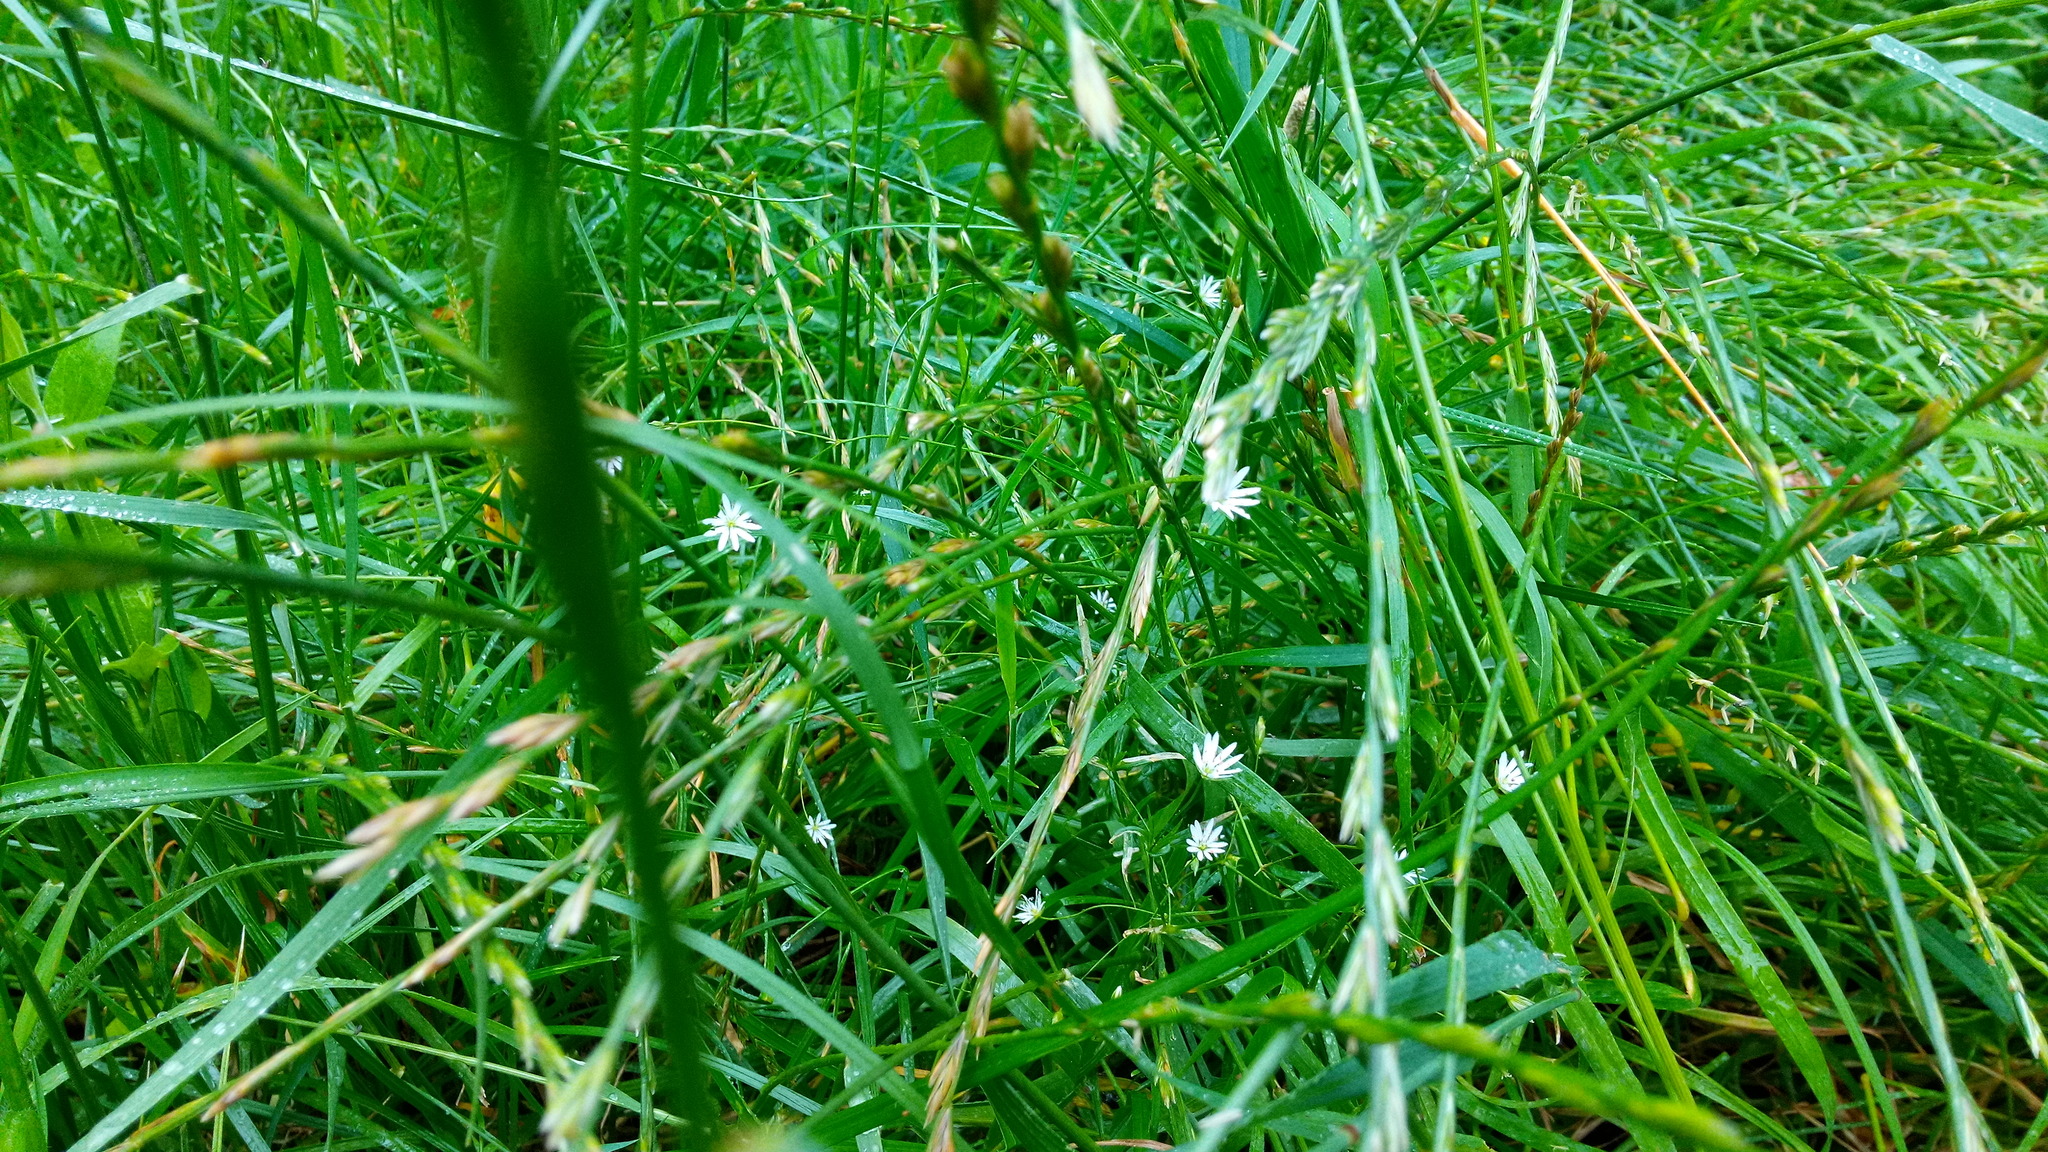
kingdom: Plantae
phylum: Tracheophyta
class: Magnoliopsida
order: Caryophyllales
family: Caryophyllaceae
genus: Stellaria
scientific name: Stellaria graminea
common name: Grass-like starwort
